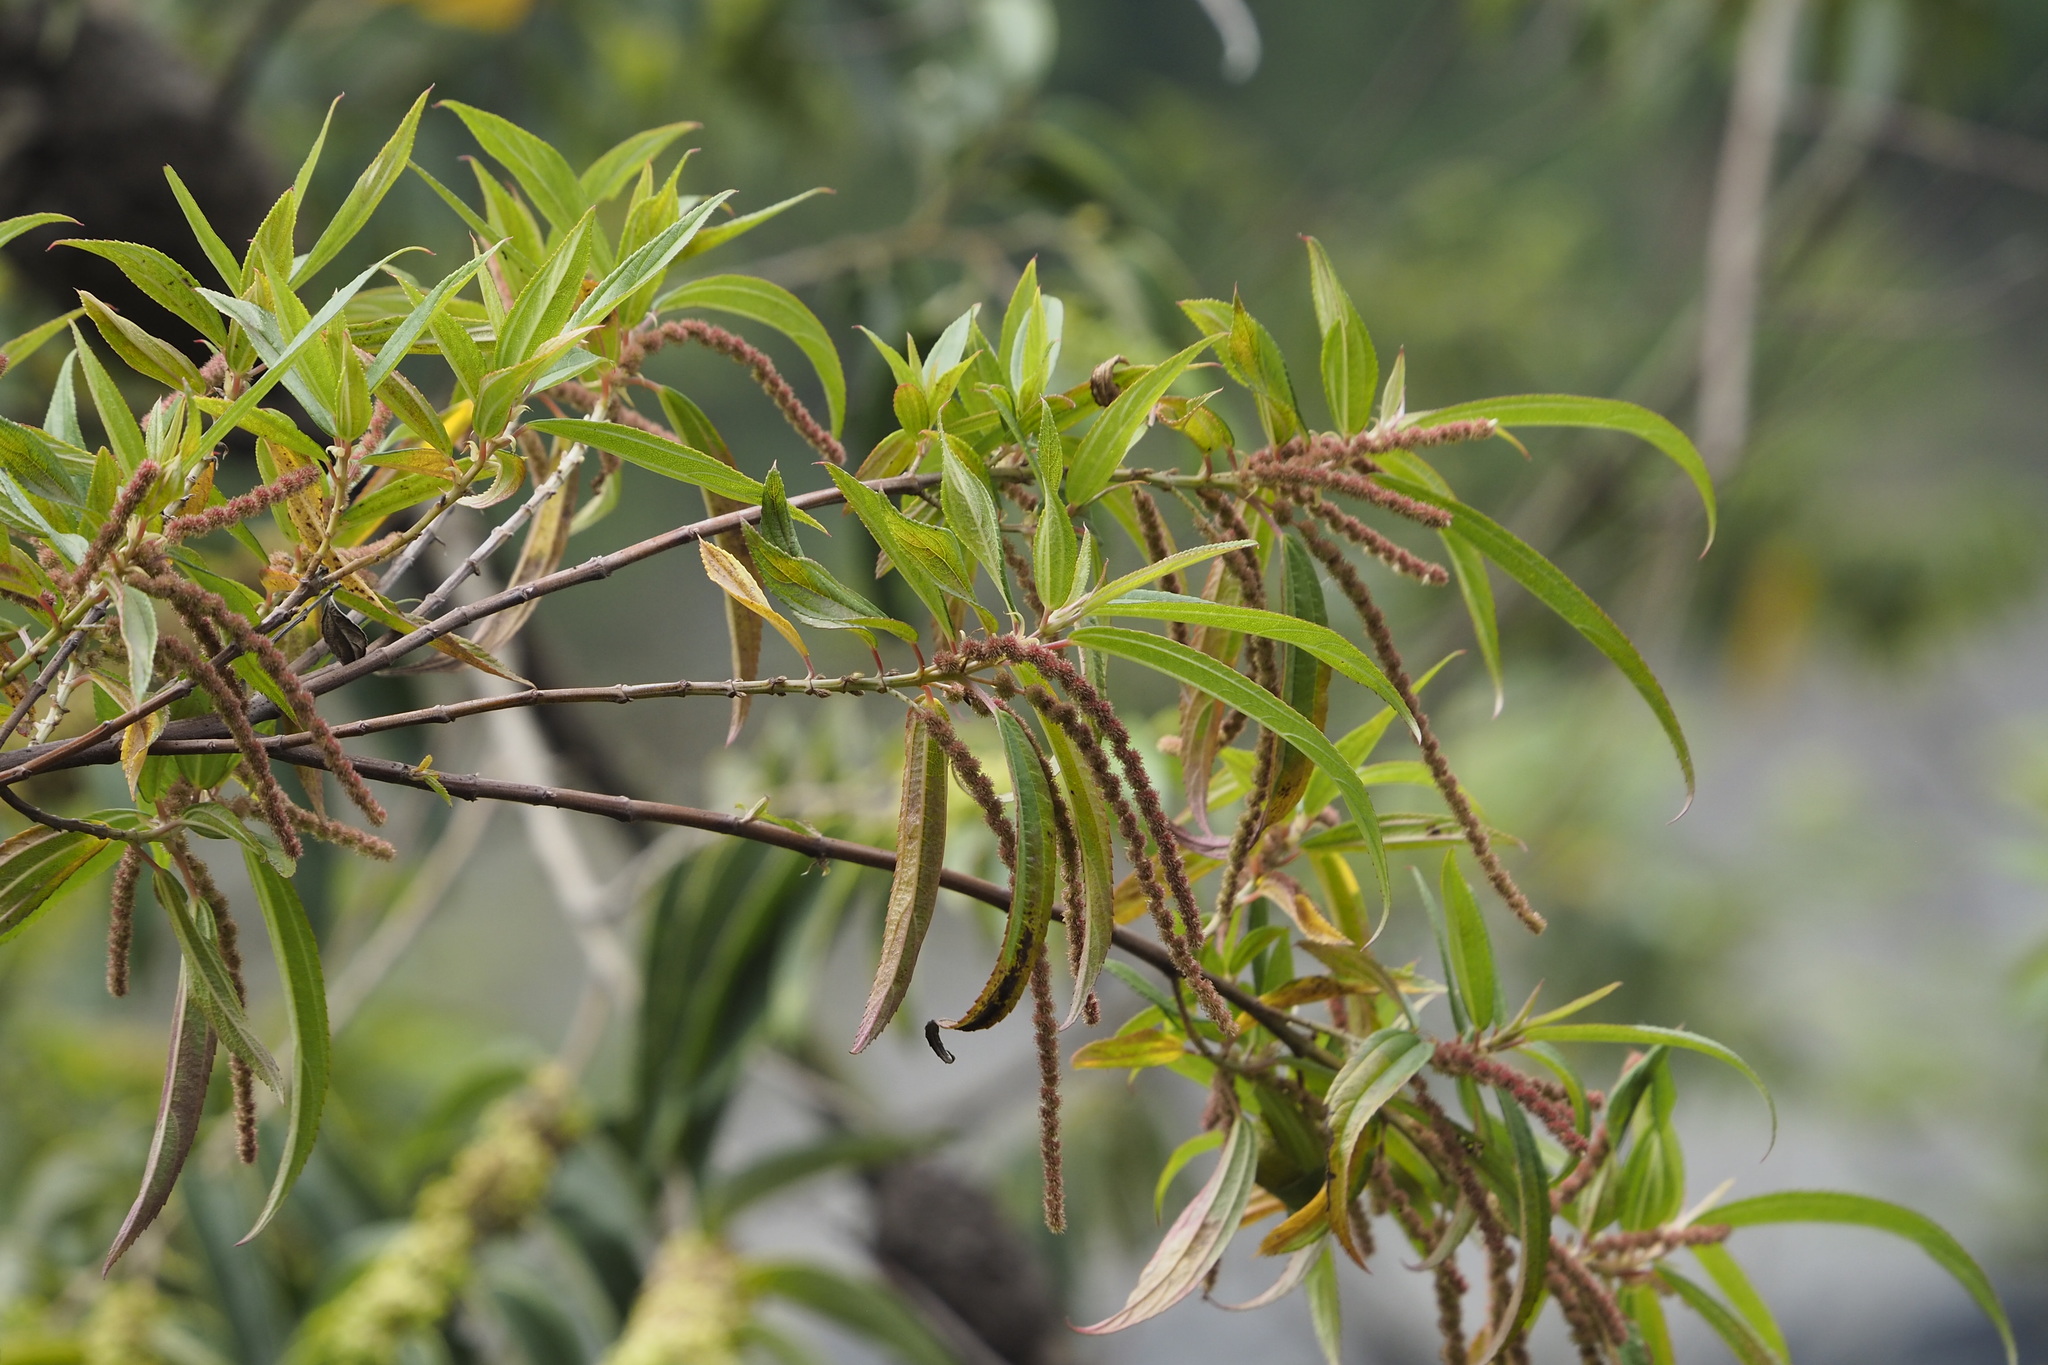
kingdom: Plantae
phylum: Tracheophyta
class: Magnoliopsida
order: Rosales
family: Urticaceae
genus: Boehmeria
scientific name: Boehmeria densiflora
